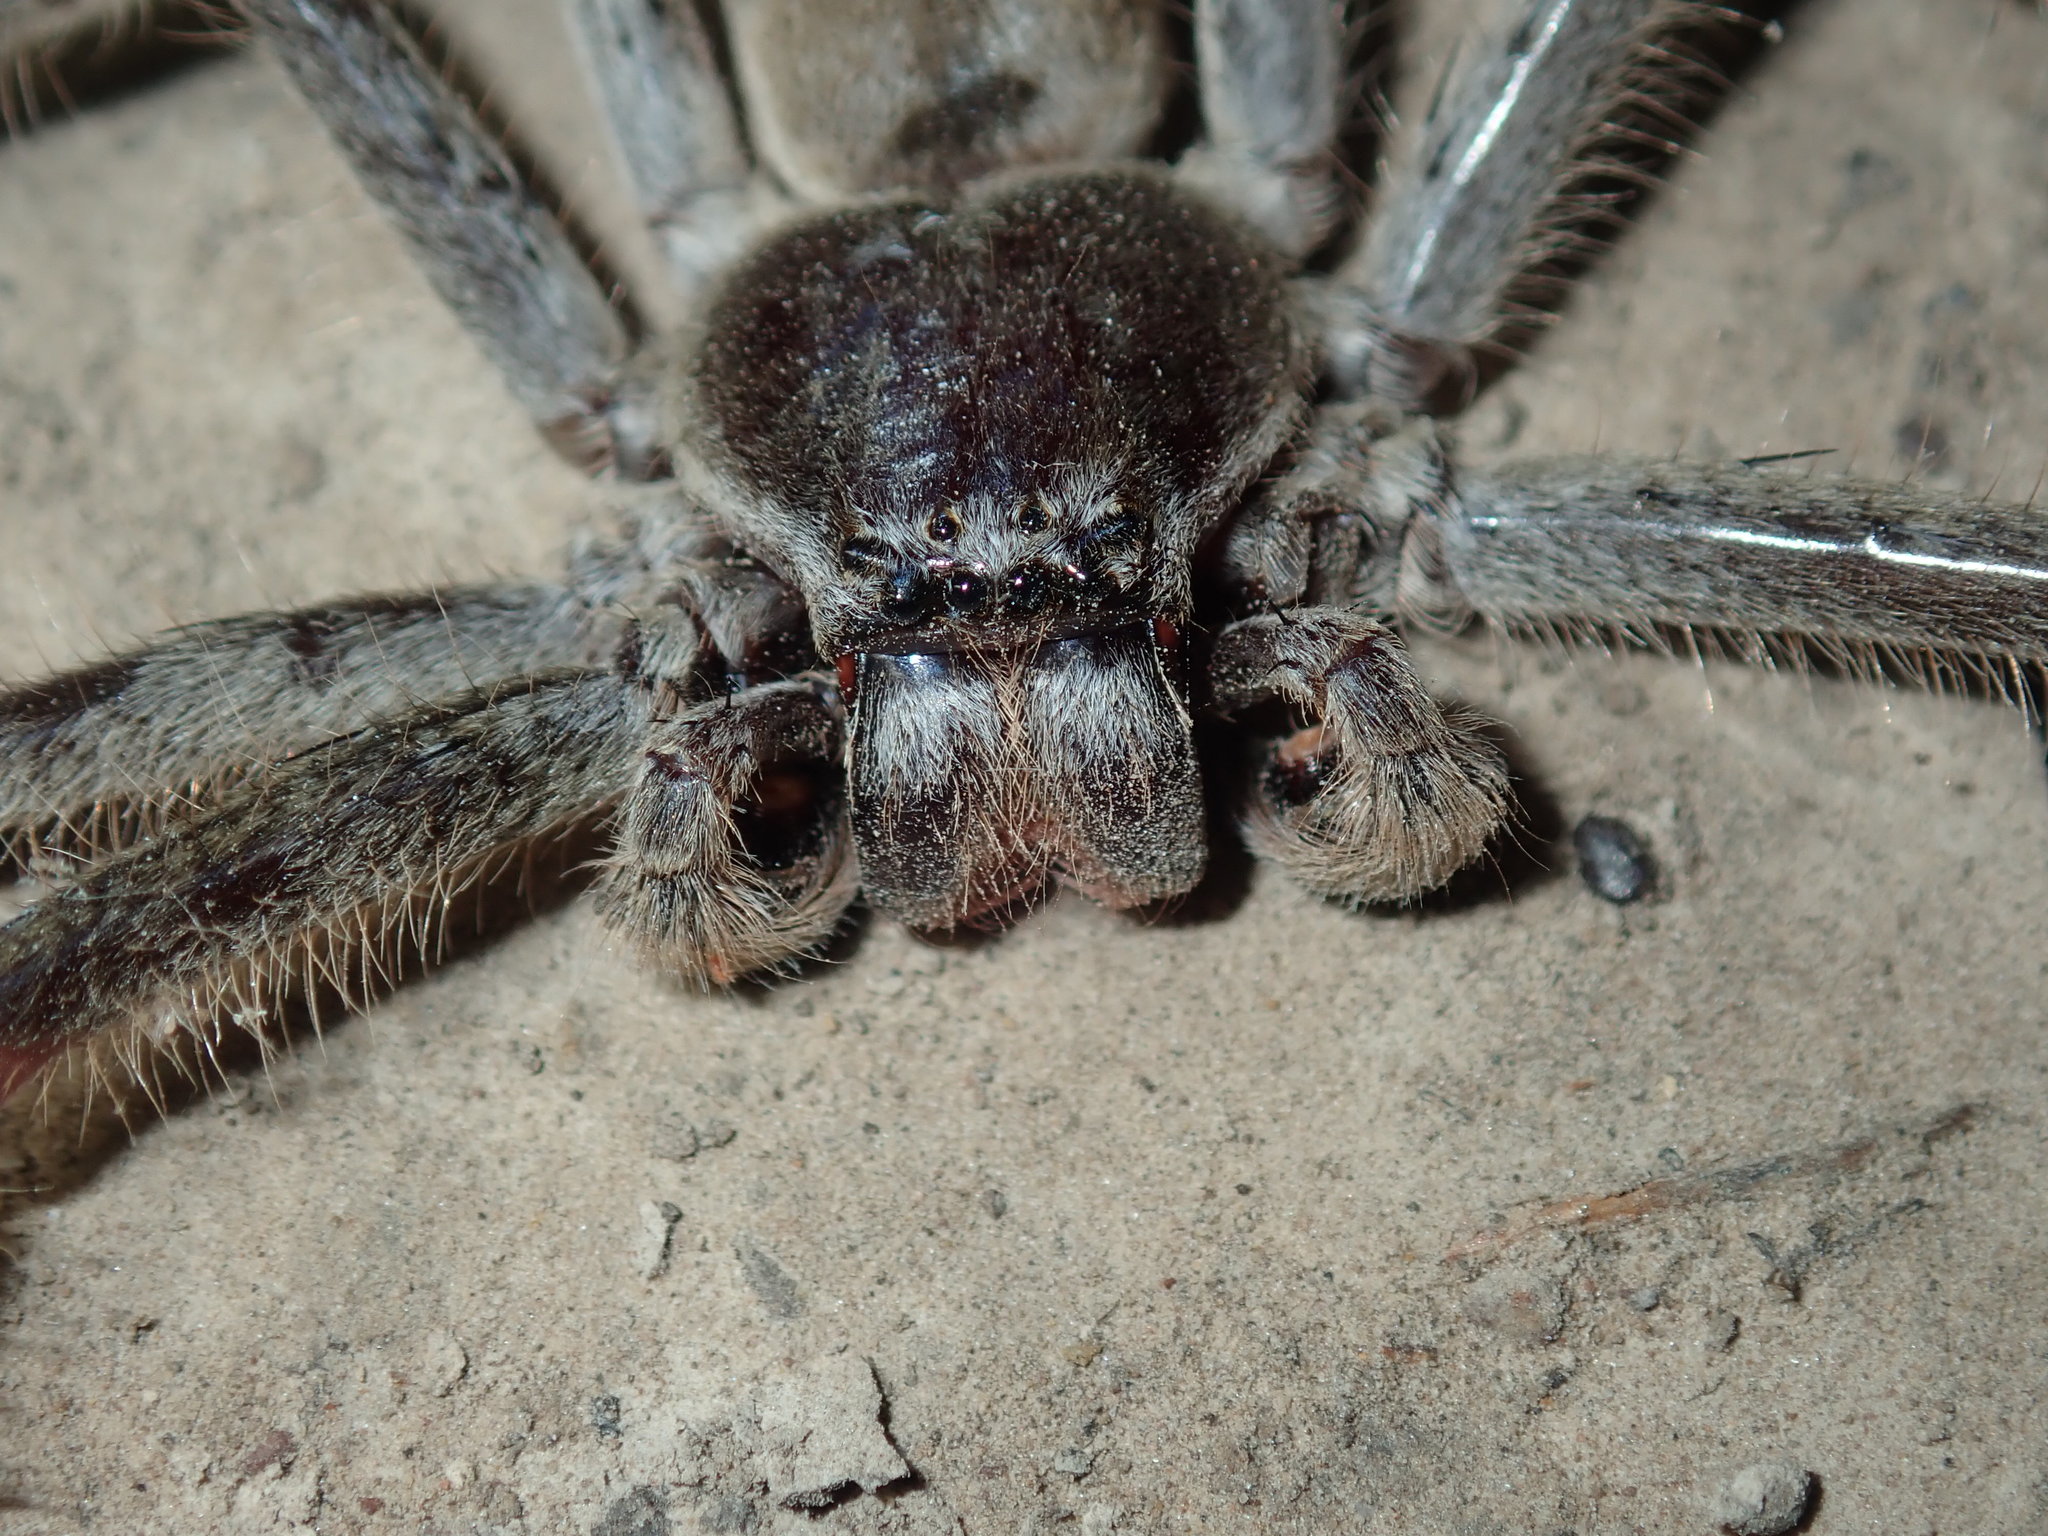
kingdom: Animalia
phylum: Arthropoda
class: Arachnida
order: Araneae
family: Sparassidae
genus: Isopeda
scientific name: Isopeda villosa
